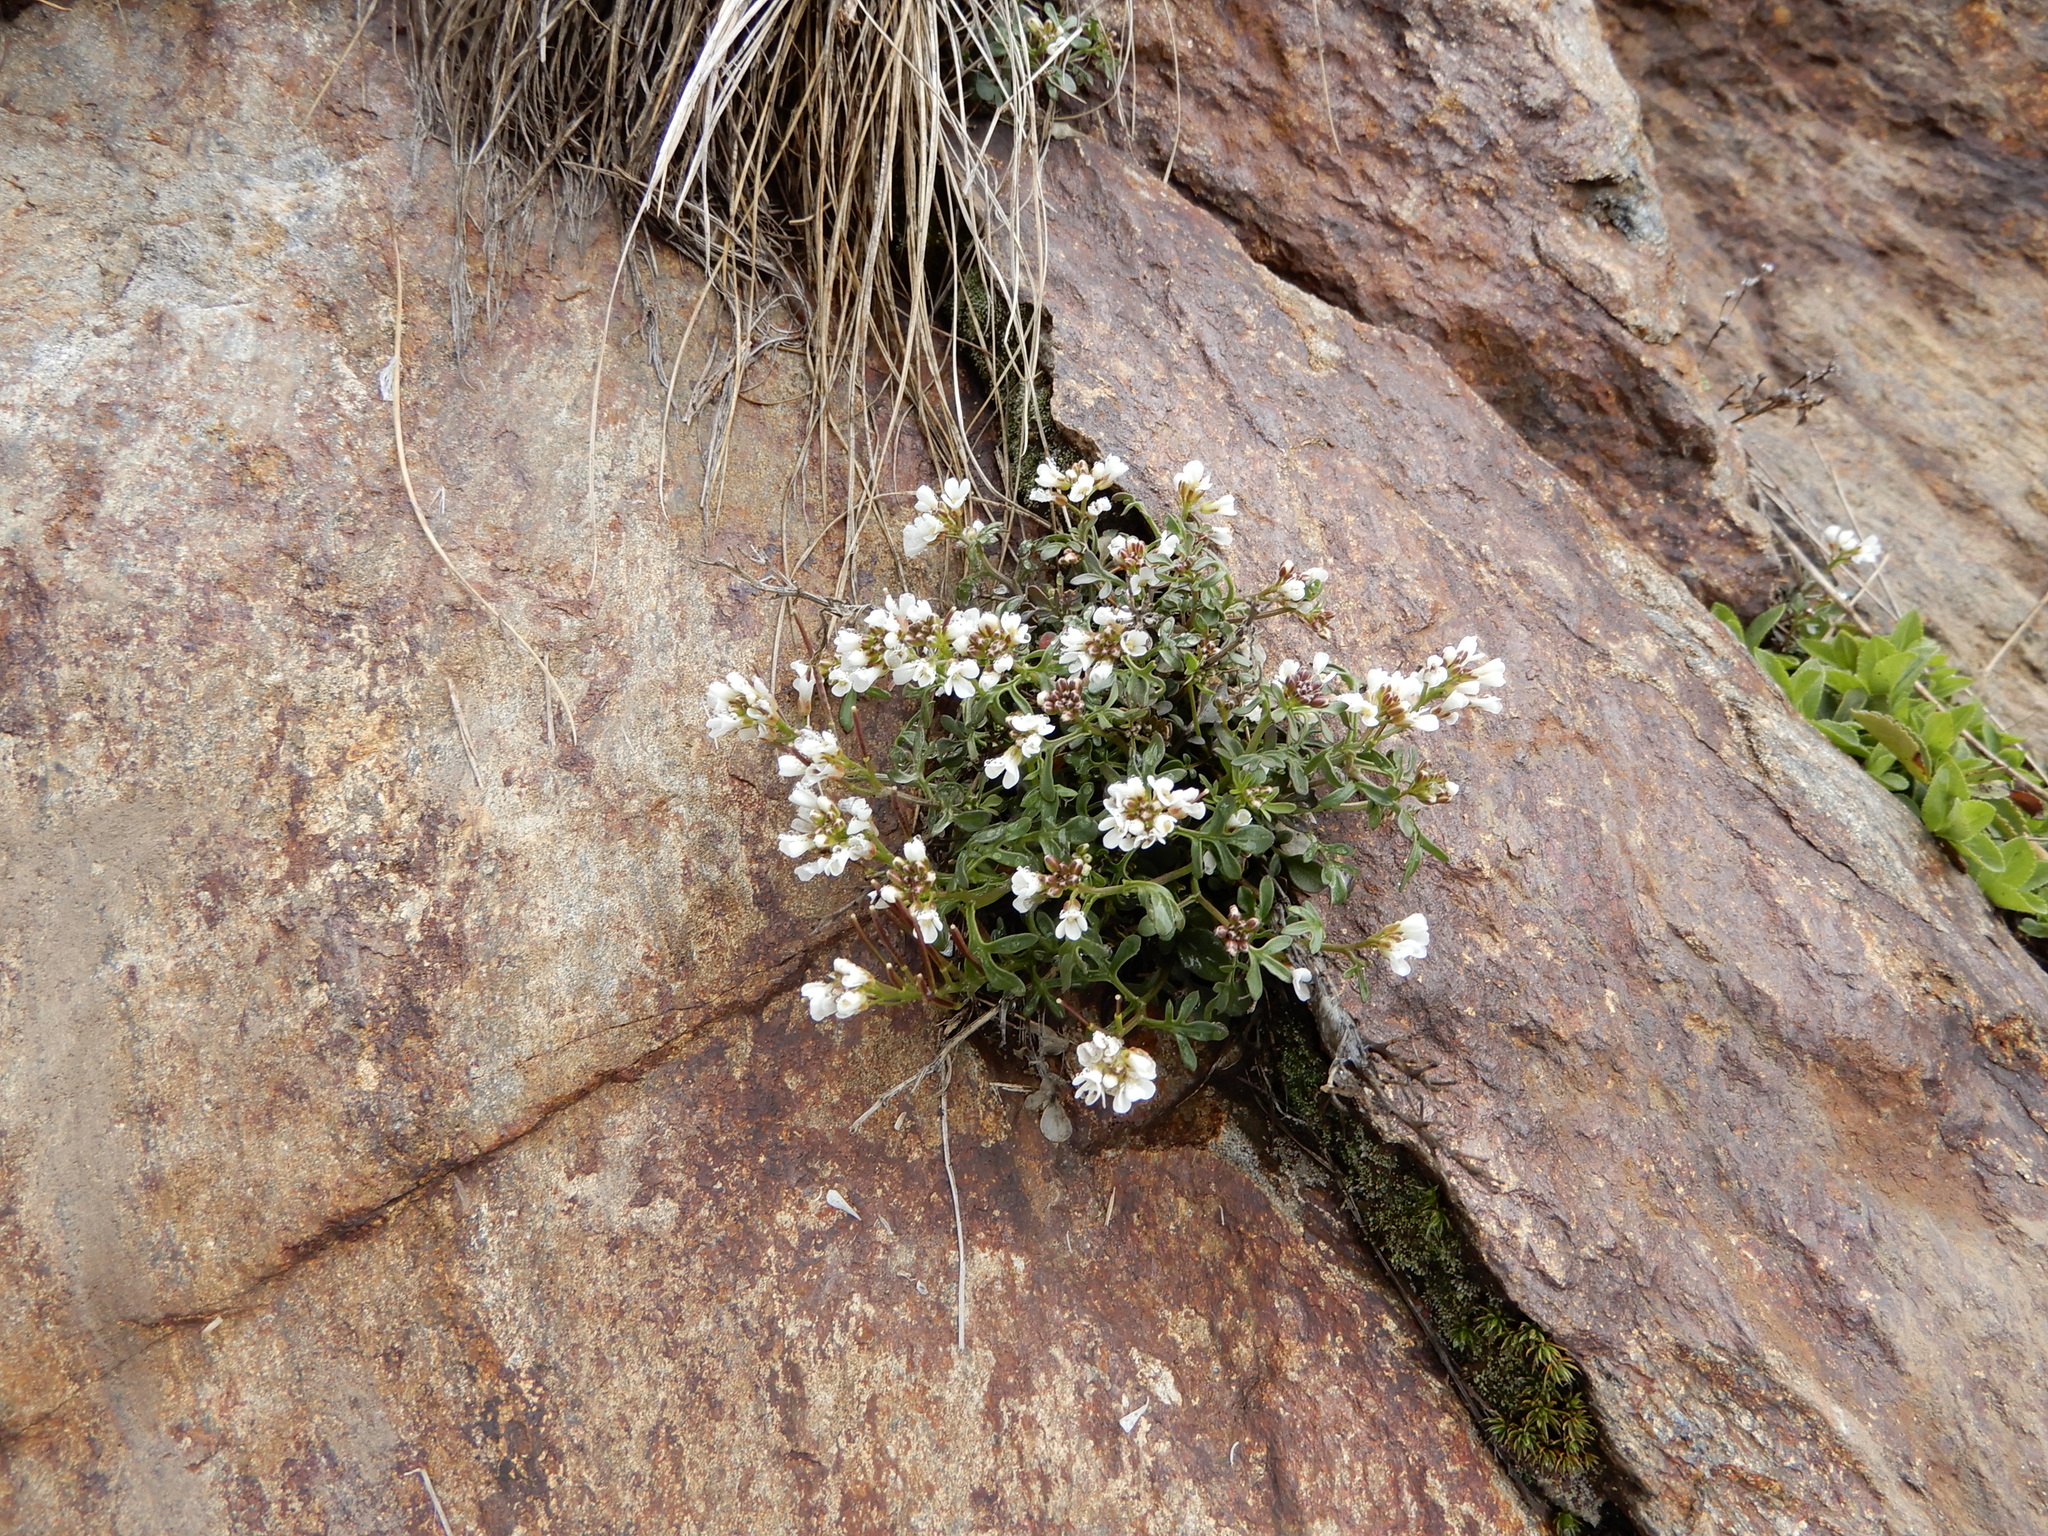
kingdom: Plantae
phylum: Tracheophyta
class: Magnoliopsida
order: Brassicales
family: Brassicaceae
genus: Cardamine
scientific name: Cardamine resedifolia
